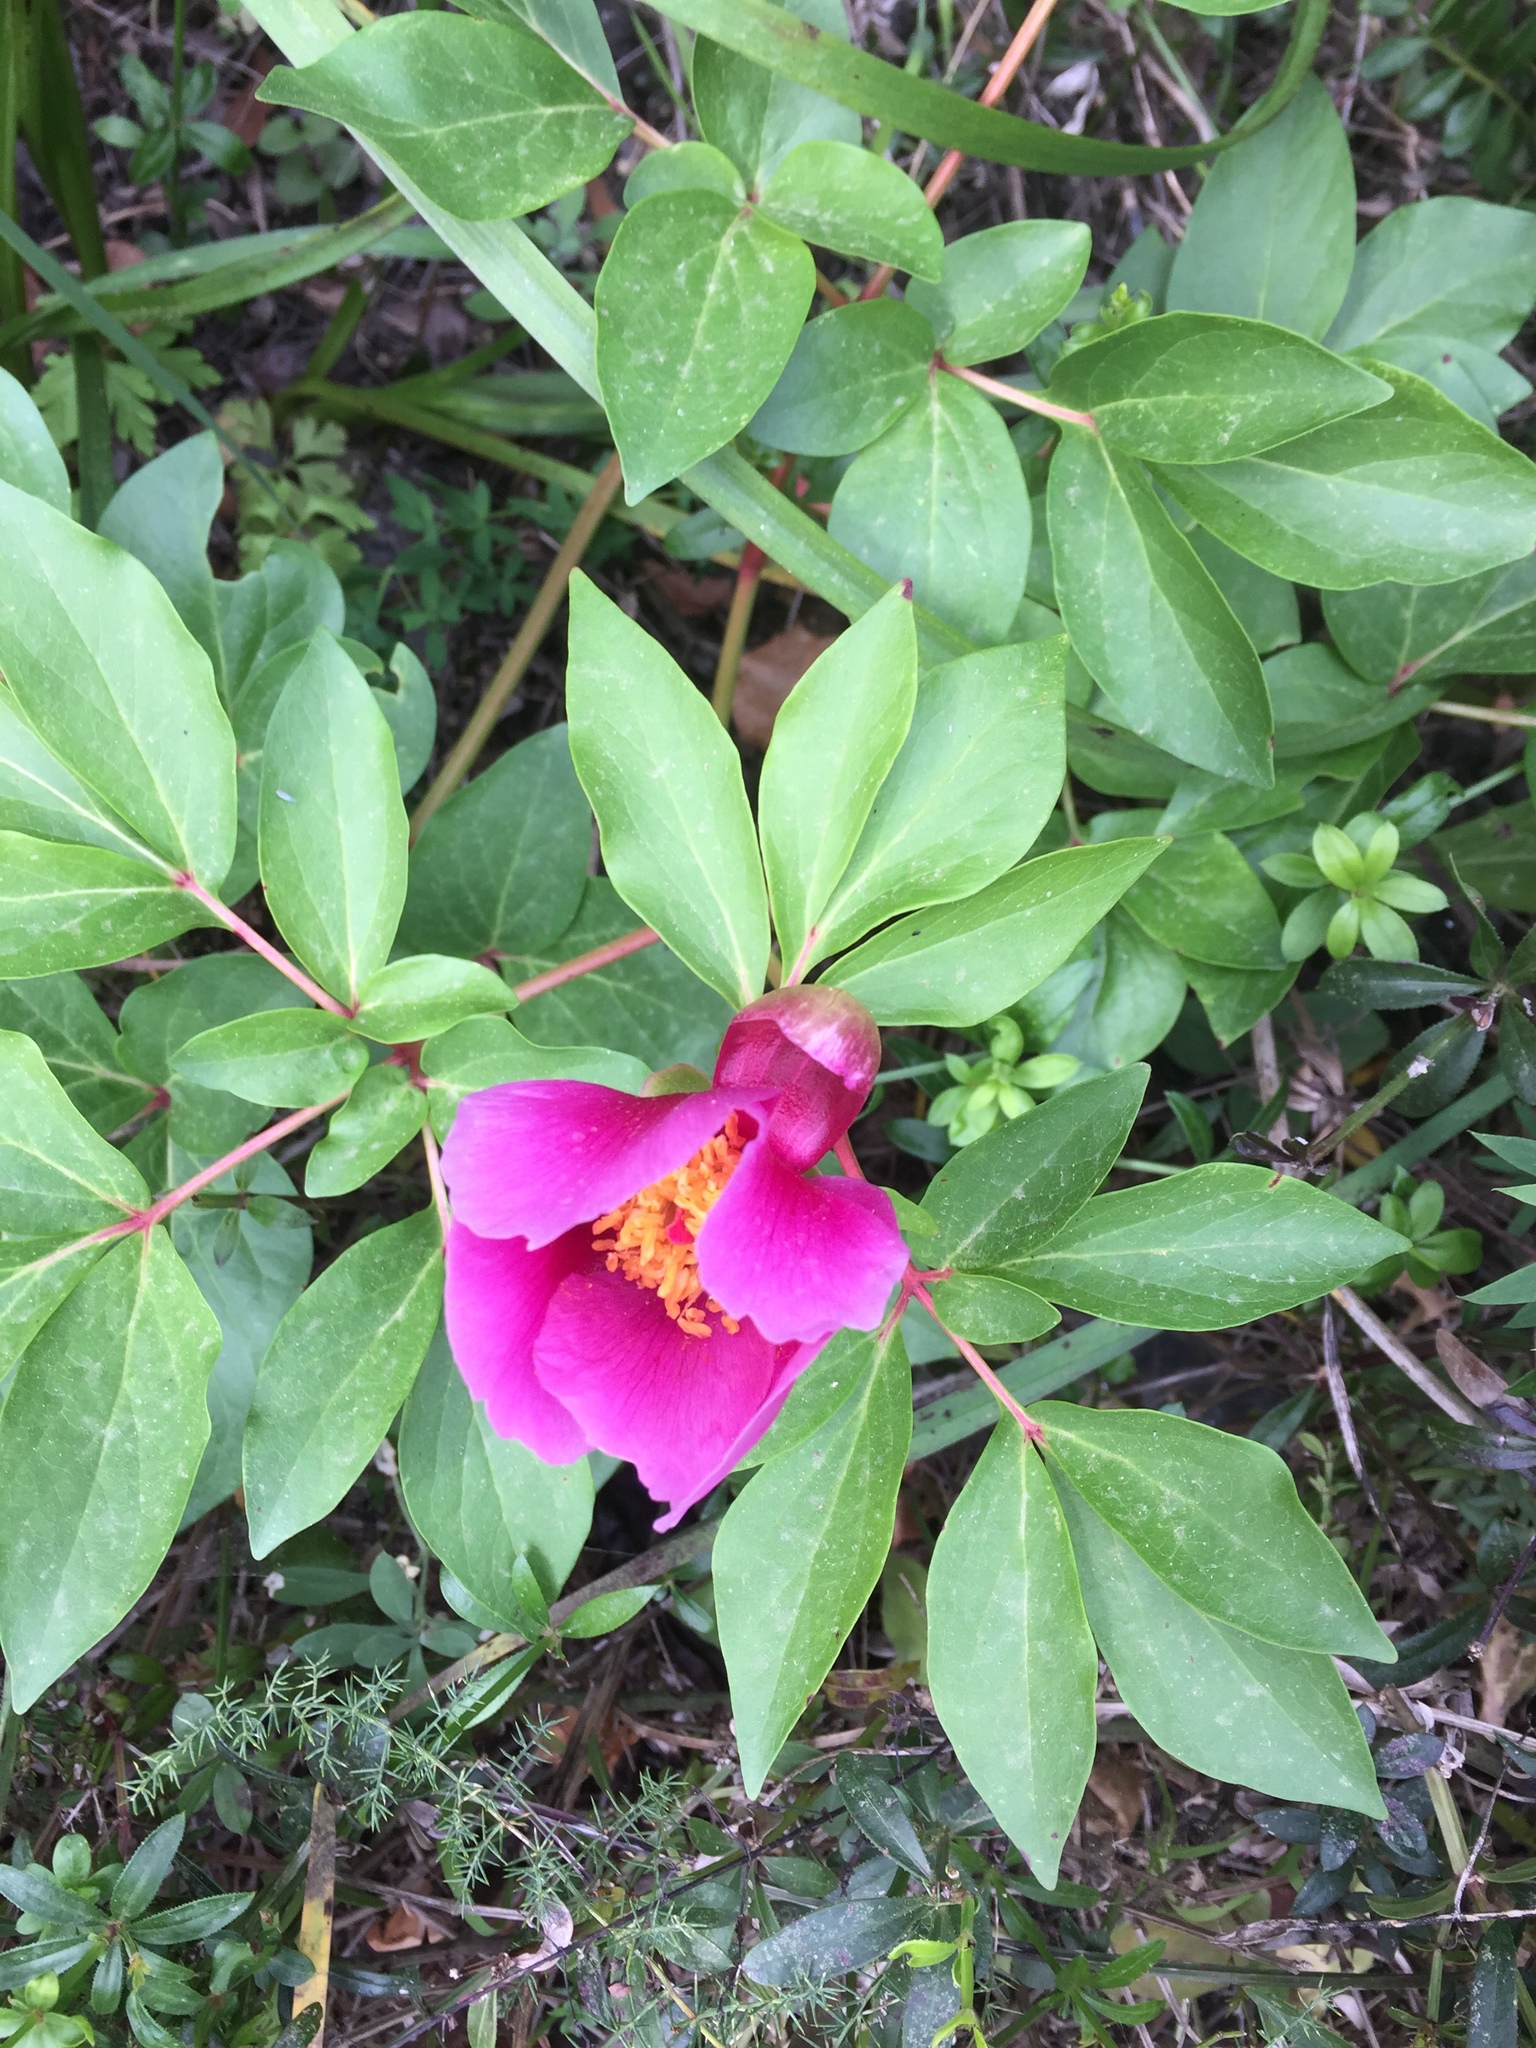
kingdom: Plantae
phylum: Tracheophyta
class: Magnoliopsida
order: Saxifragales
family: Paeoniaceae
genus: Paeonia
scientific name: Paeonia broteroi
